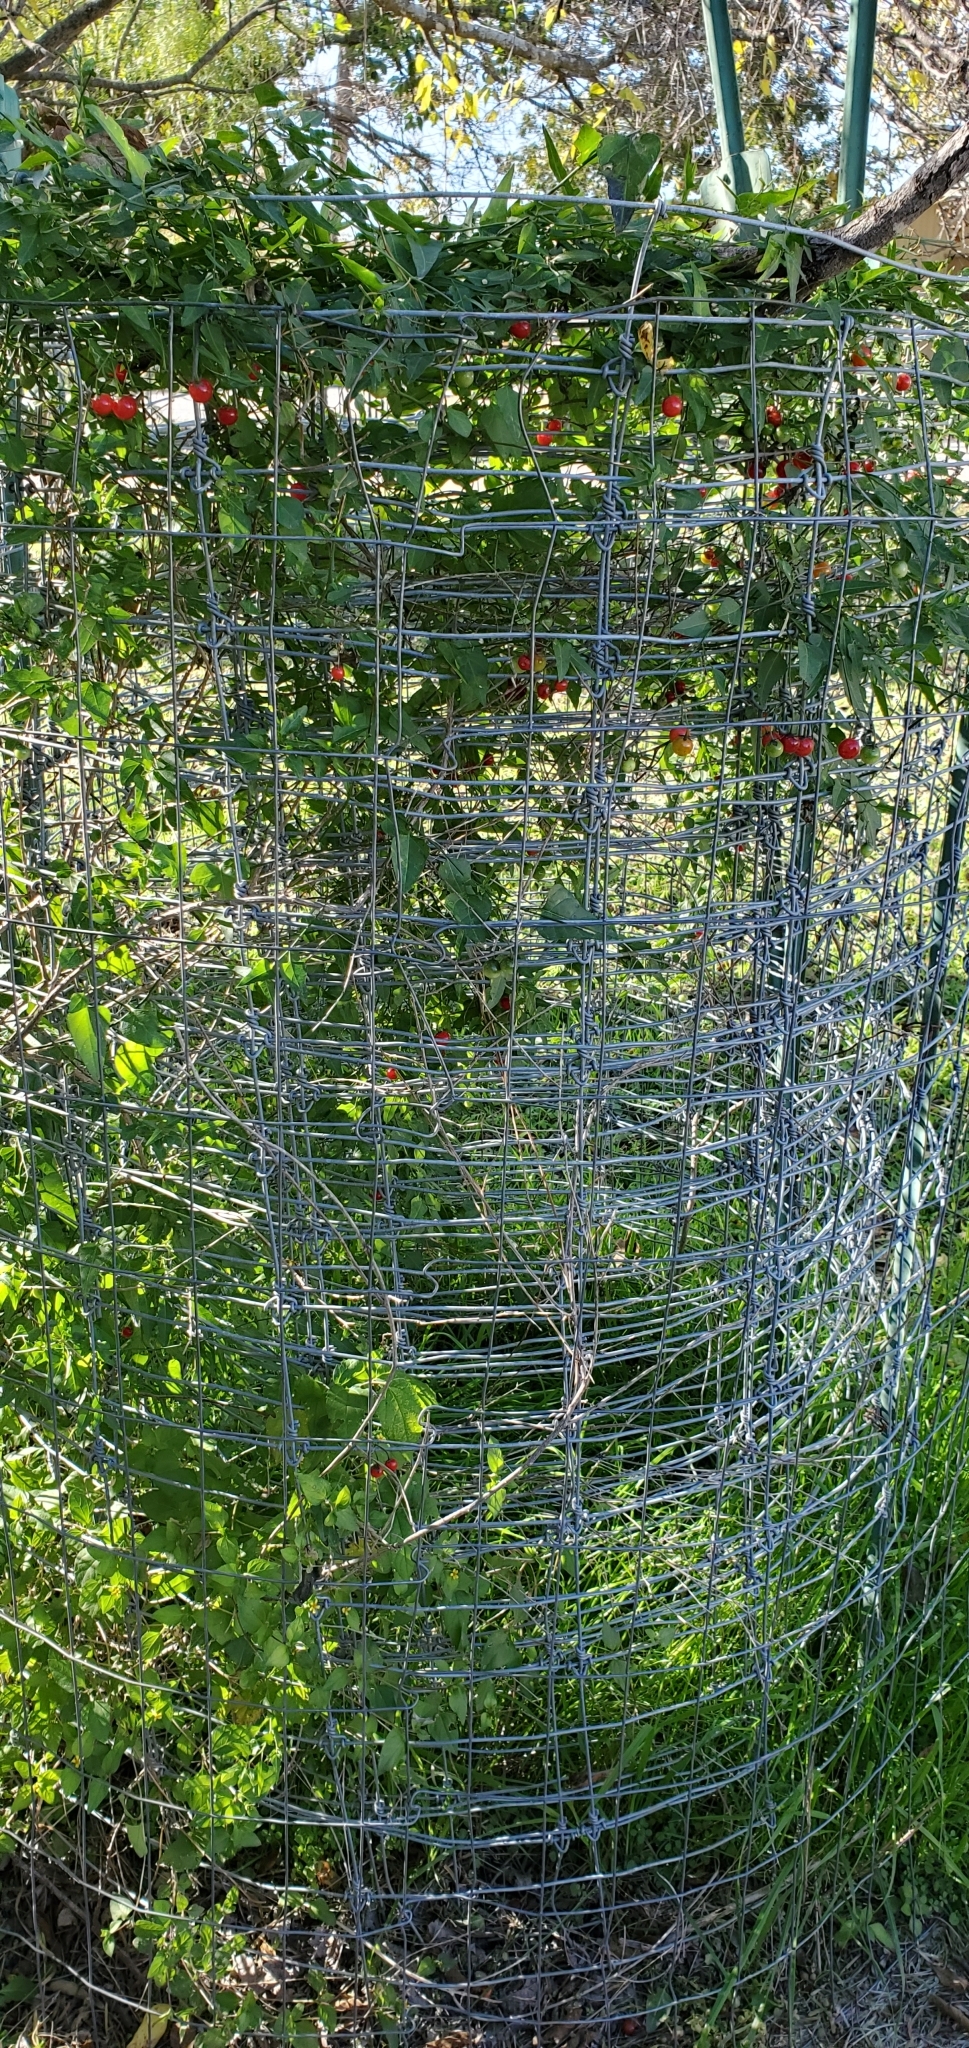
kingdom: Plantae
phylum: Tracheophyta
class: Magnoliopsida
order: Solanales
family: Solanaceae
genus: Solanum
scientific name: Solanum triquetrum
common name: Texas nightshade
